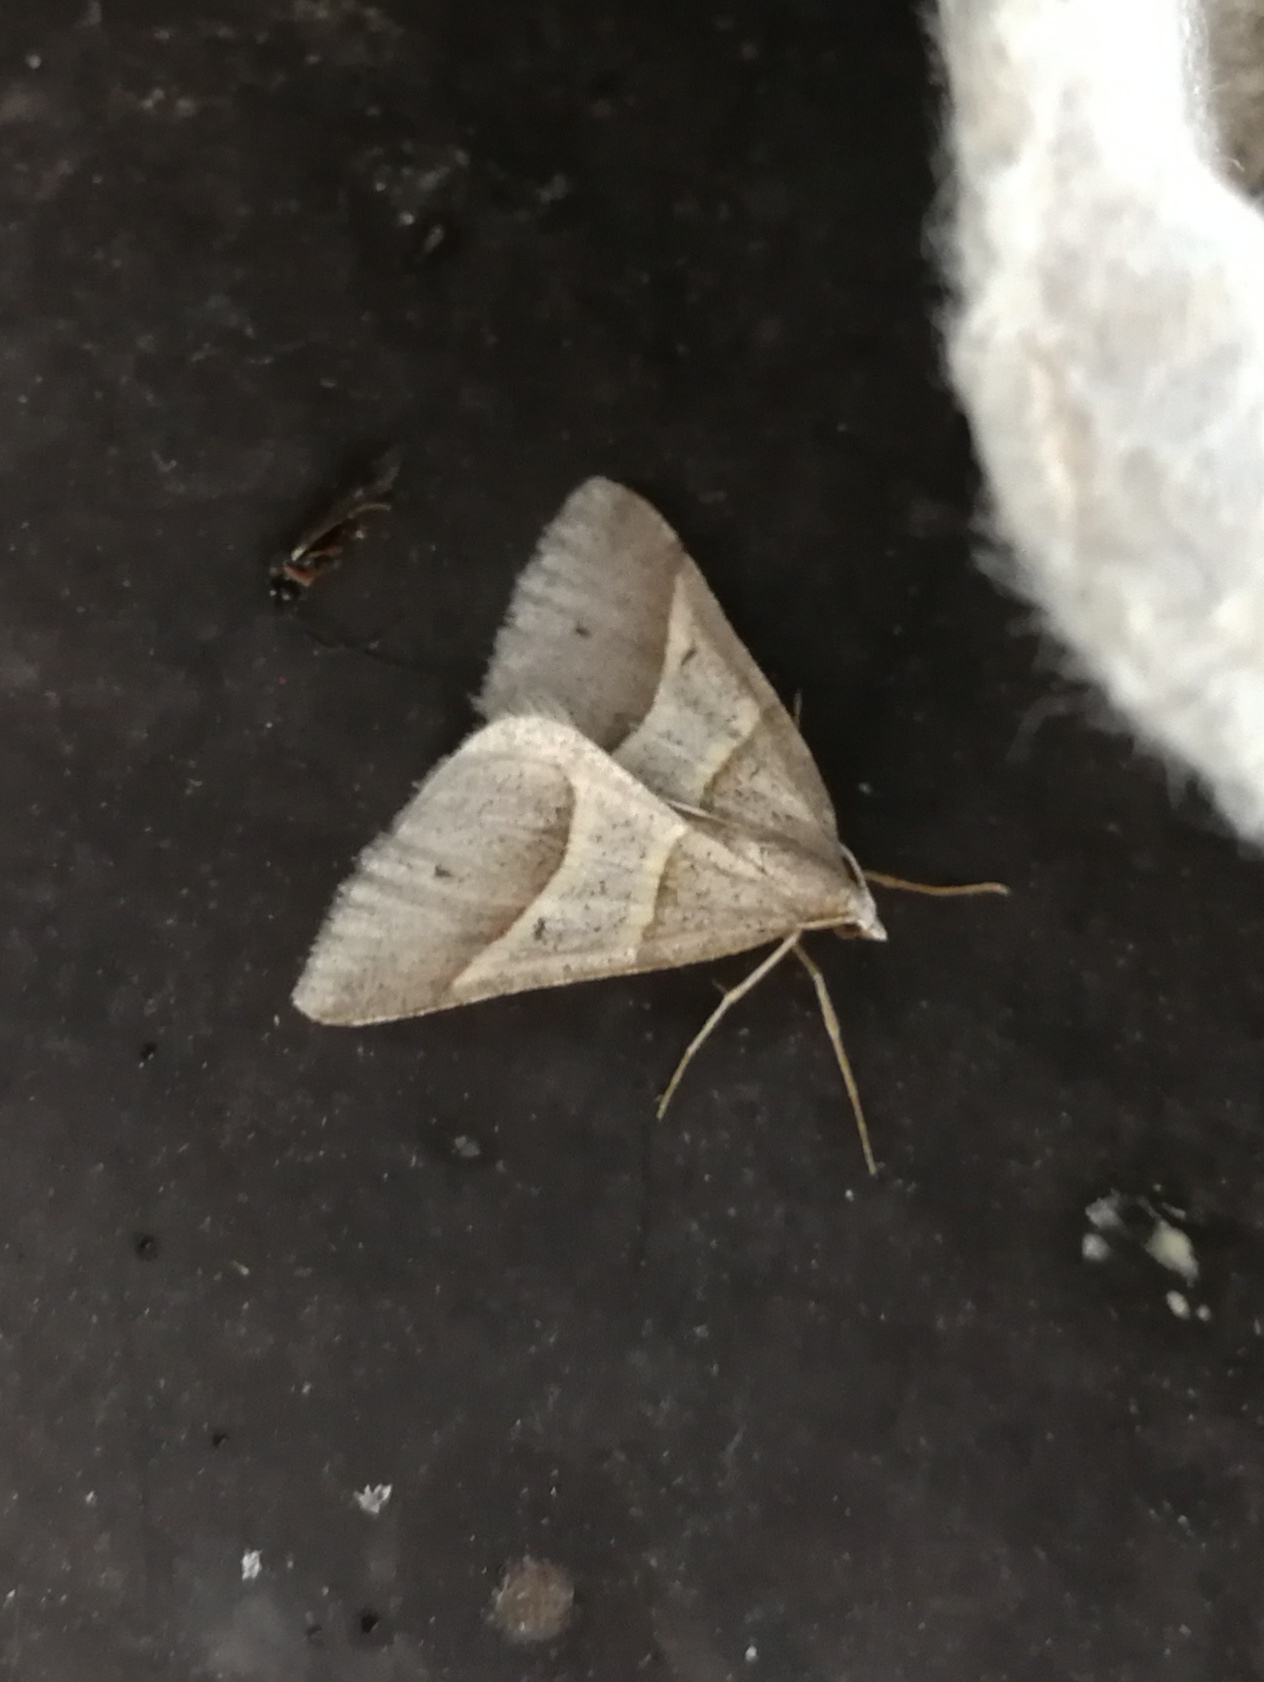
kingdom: Animalia
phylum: Arthropoda
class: Insecta
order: Lepidoptera
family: Pterophoridae
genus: Pterophorus
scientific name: Pterophorus Petrophora convergata
